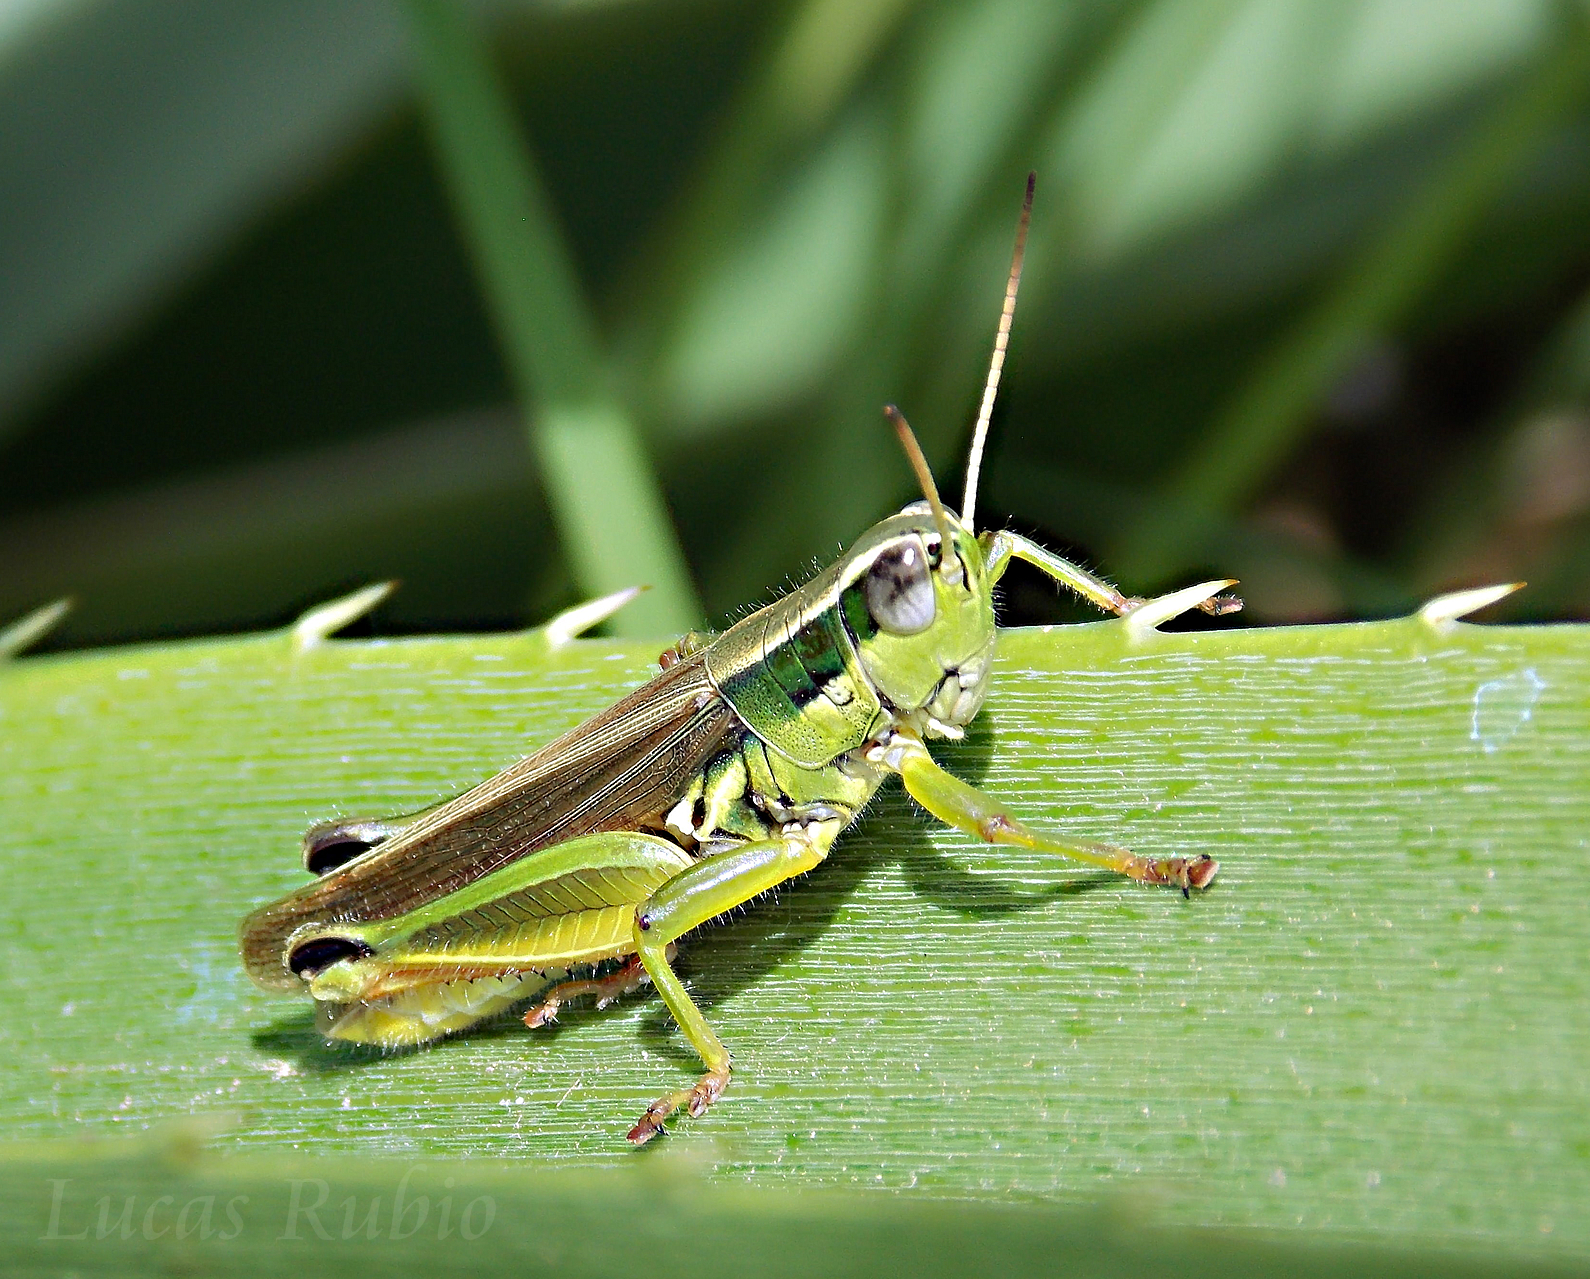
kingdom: Animalia
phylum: Arthropoda
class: Insecta
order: Orthoptera
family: Acrididae
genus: Scotussa
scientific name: Scotussa cliens
